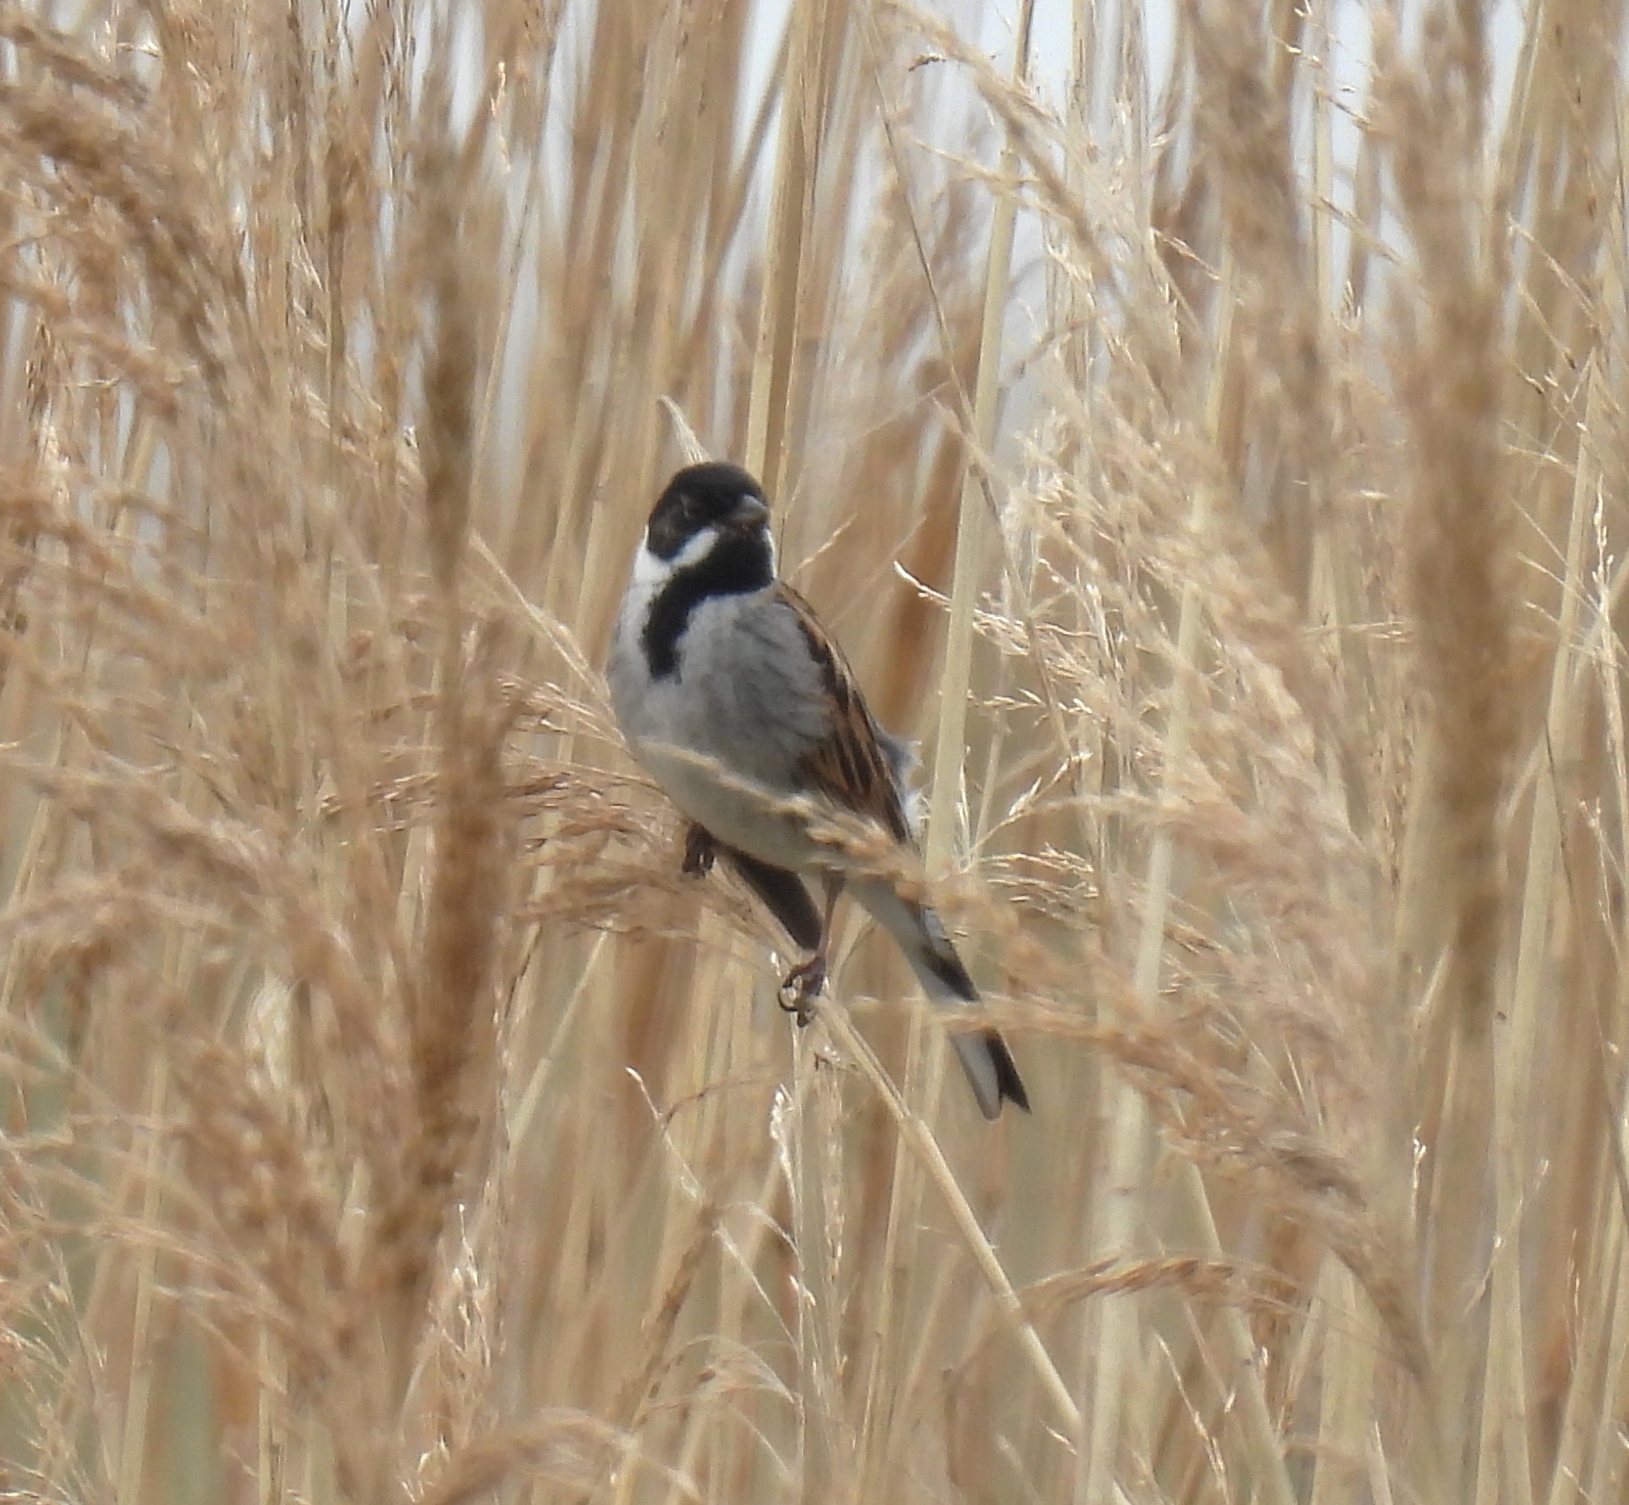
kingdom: Animalia
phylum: Chordata
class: Aves
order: Passeriformes
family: Emberizidae
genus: Emberiza
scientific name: Emberiza schoeniclus
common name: Reed bunting
